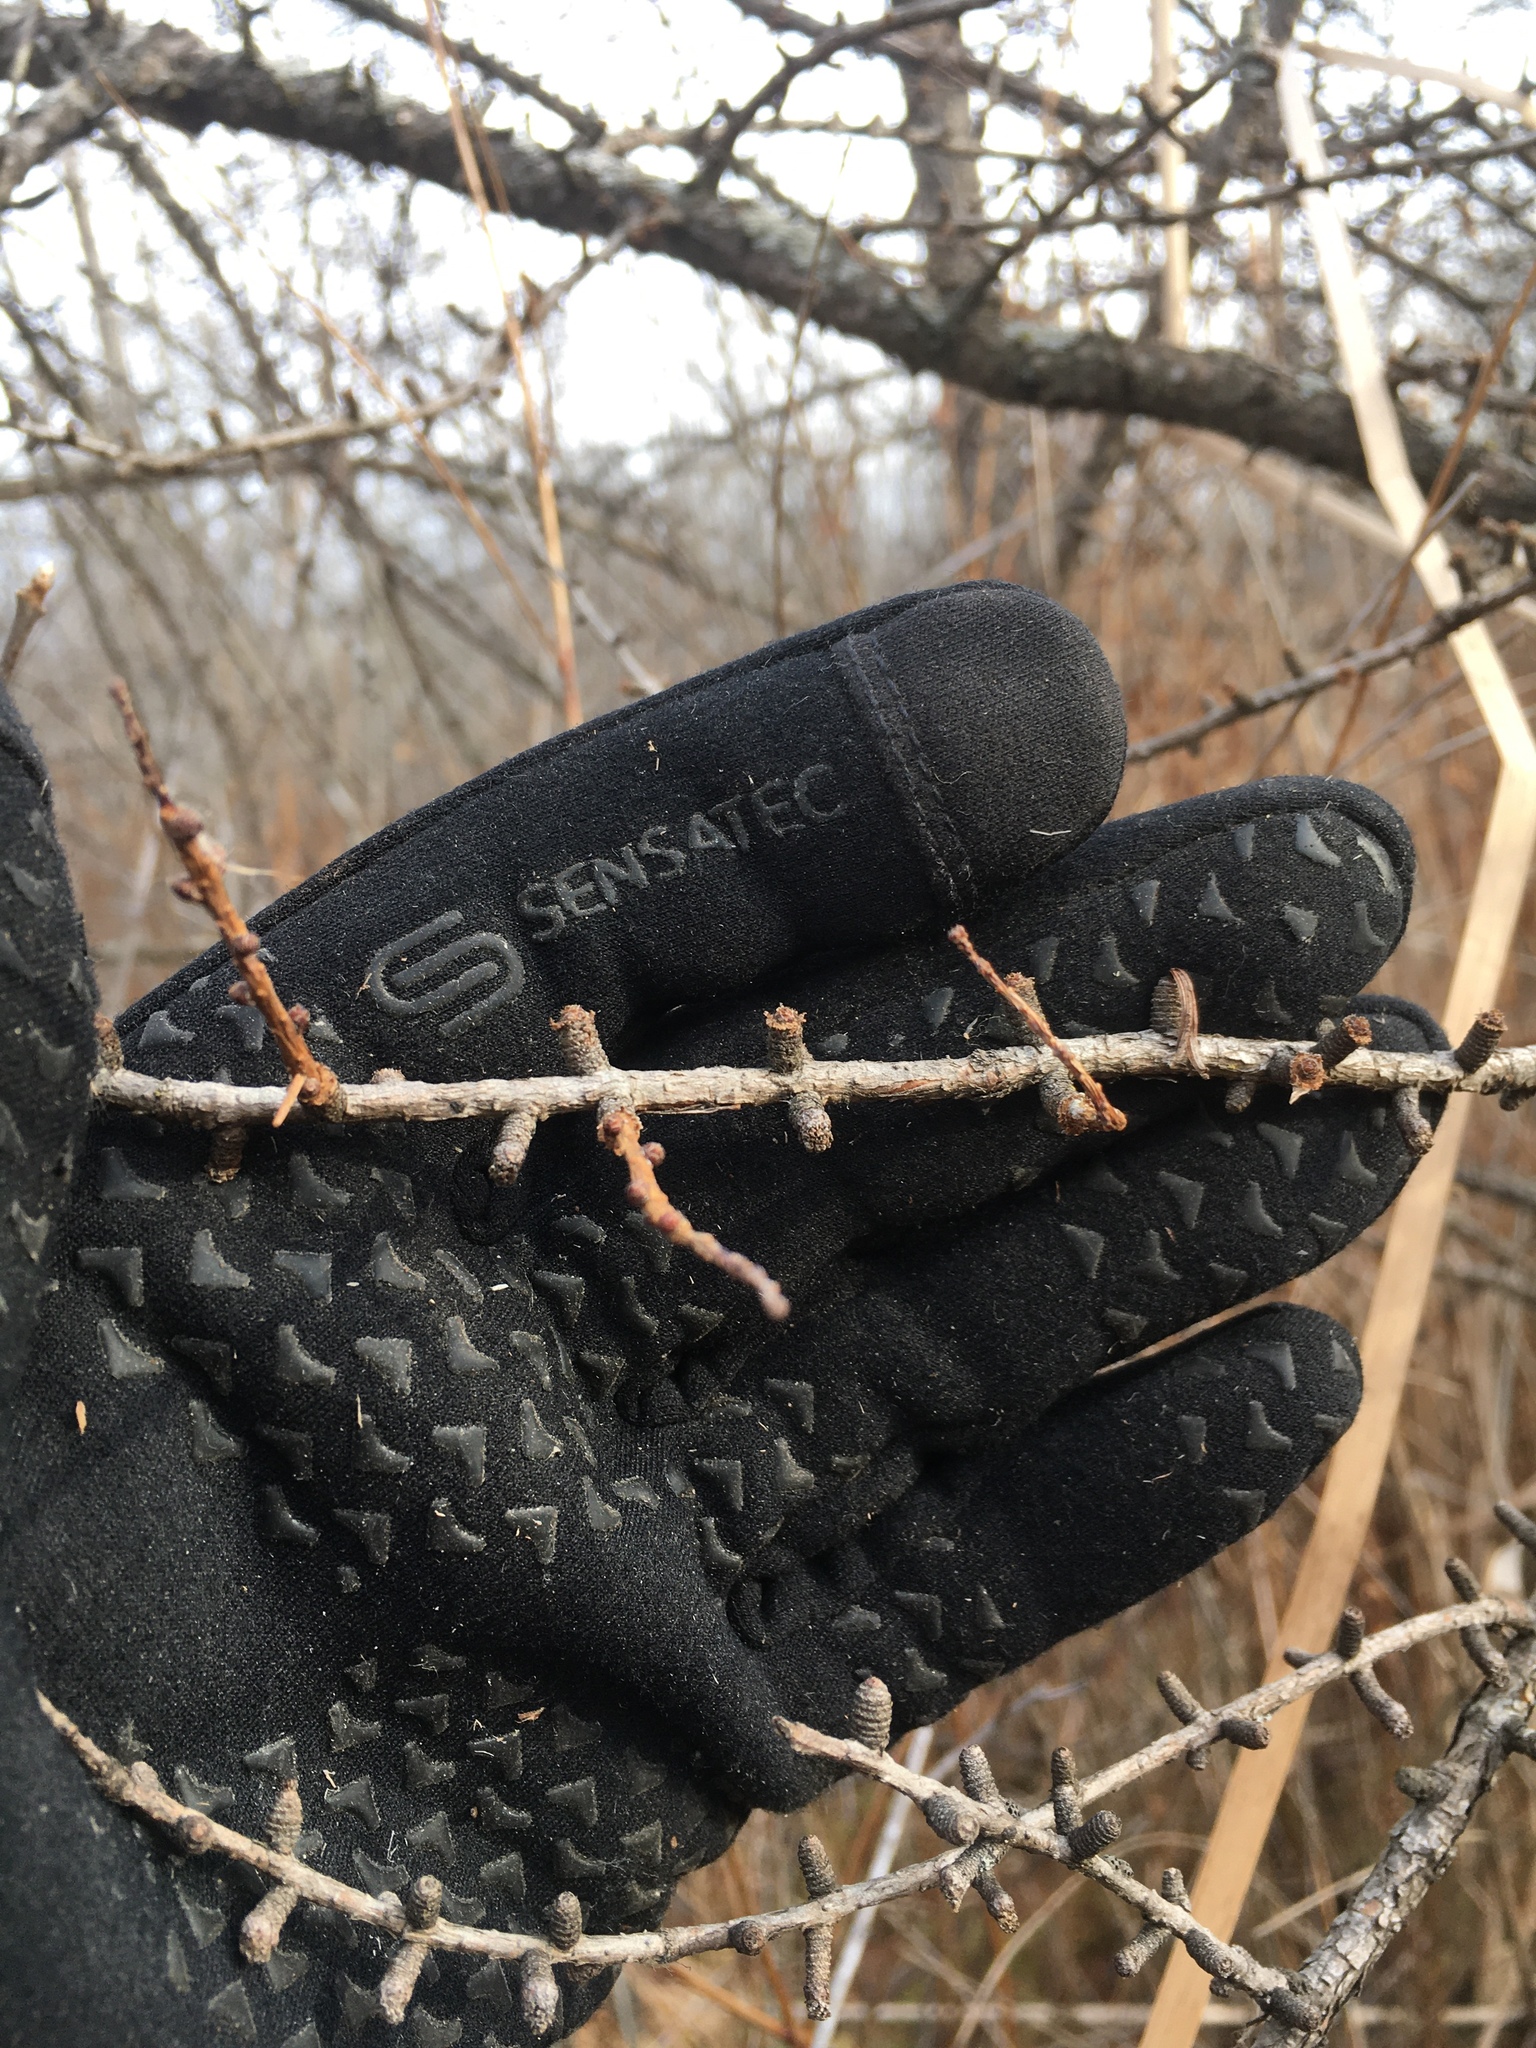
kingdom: Plantae
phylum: Tracheophyta
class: Pinopsida
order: Pinales
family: Pinaceae
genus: Larix
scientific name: Larix laricina
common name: American larch
